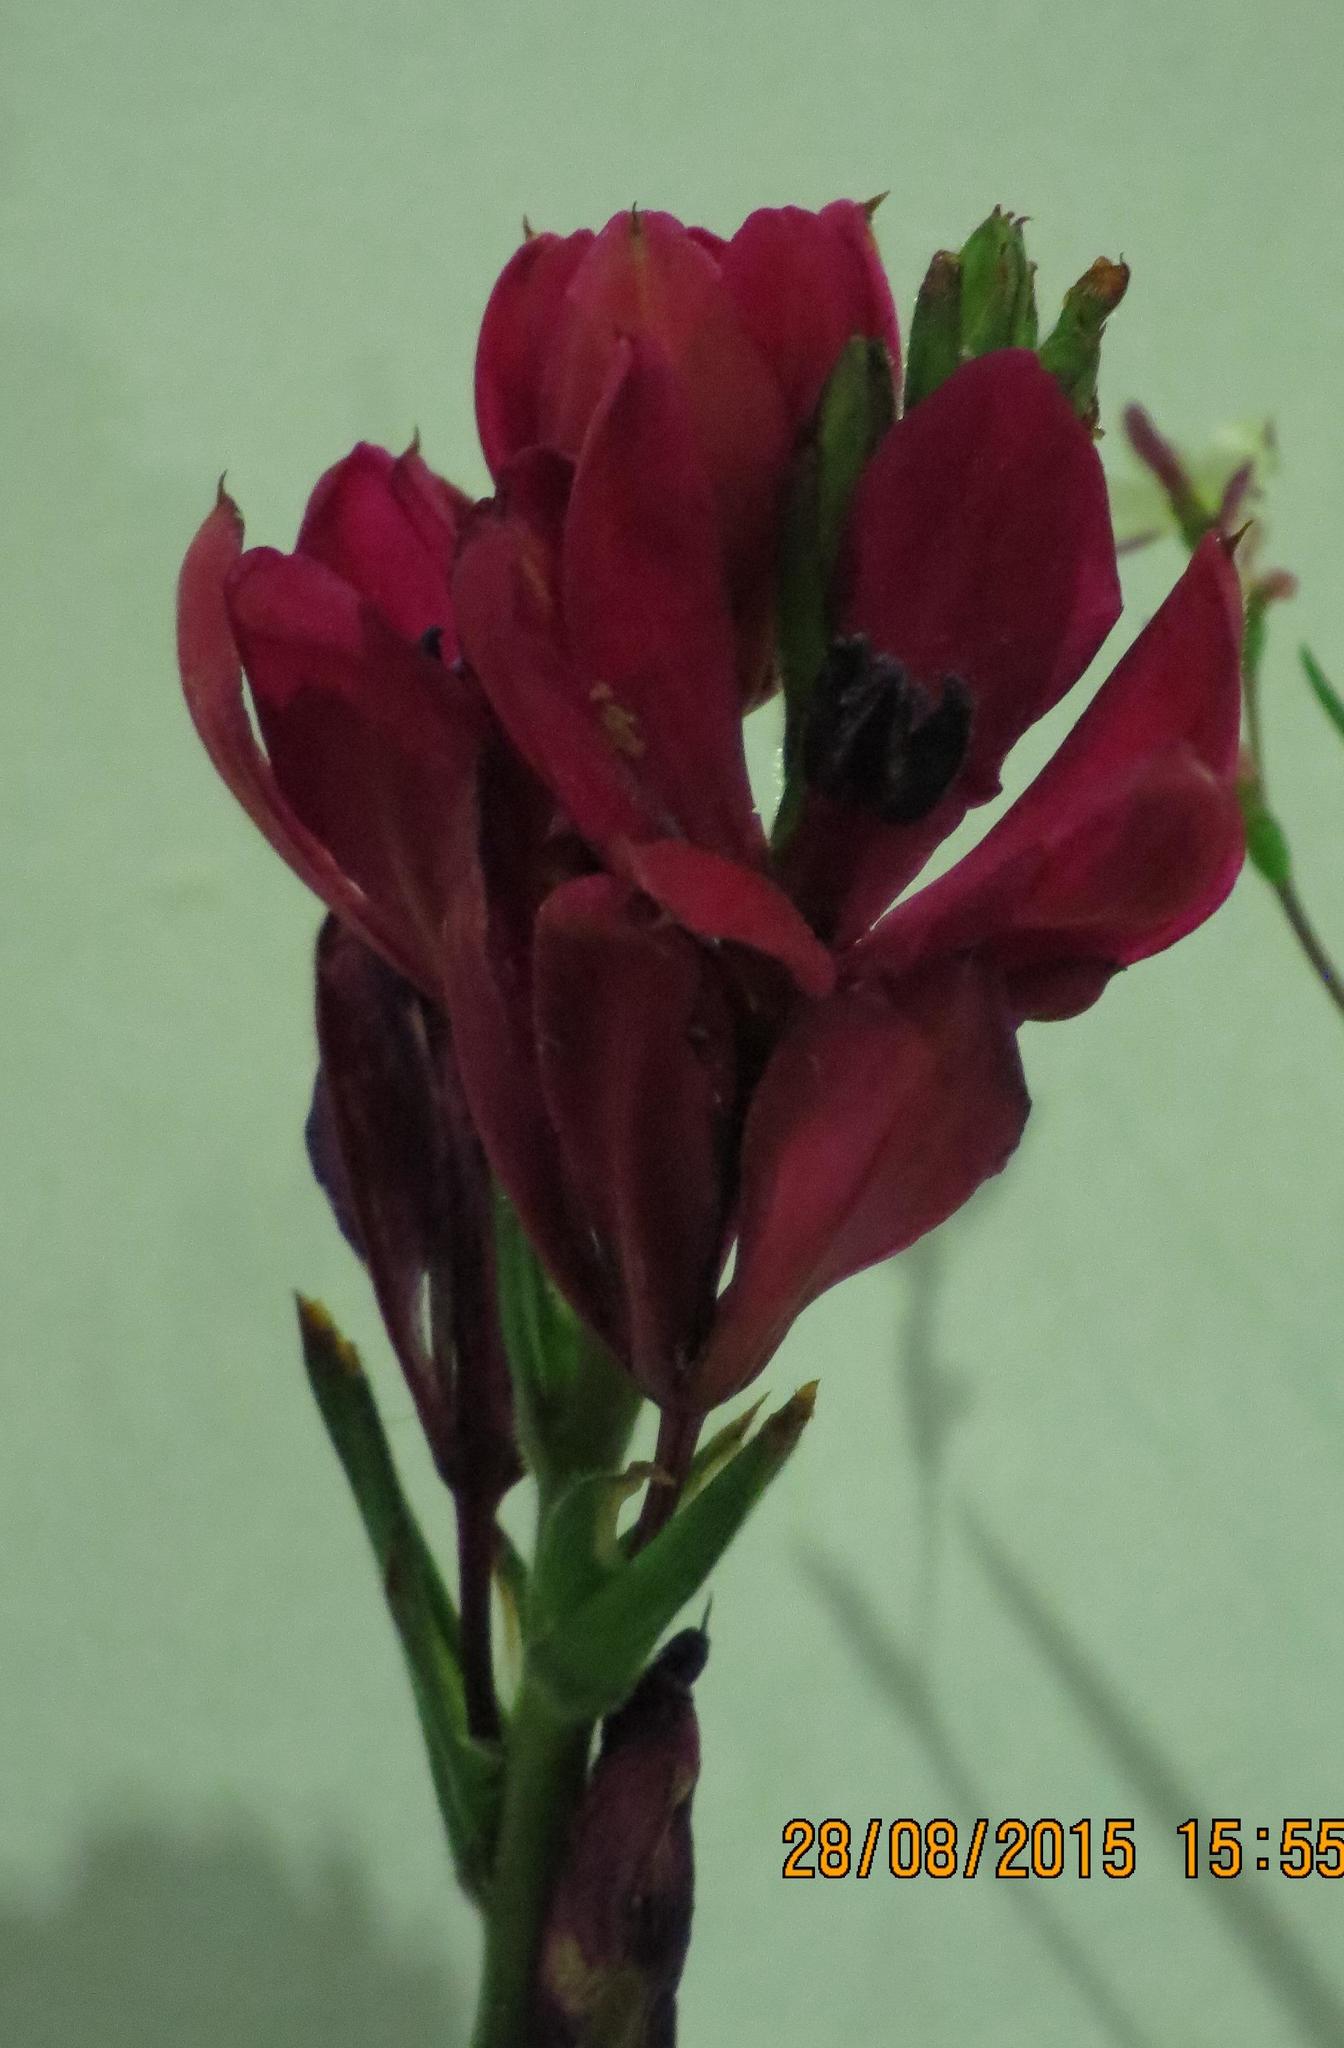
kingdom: Plantae
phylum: Tracheophyta
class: Liliopsida
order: Asparagales
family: Iridaceae
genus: Babiana
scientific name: Babiana villosa
